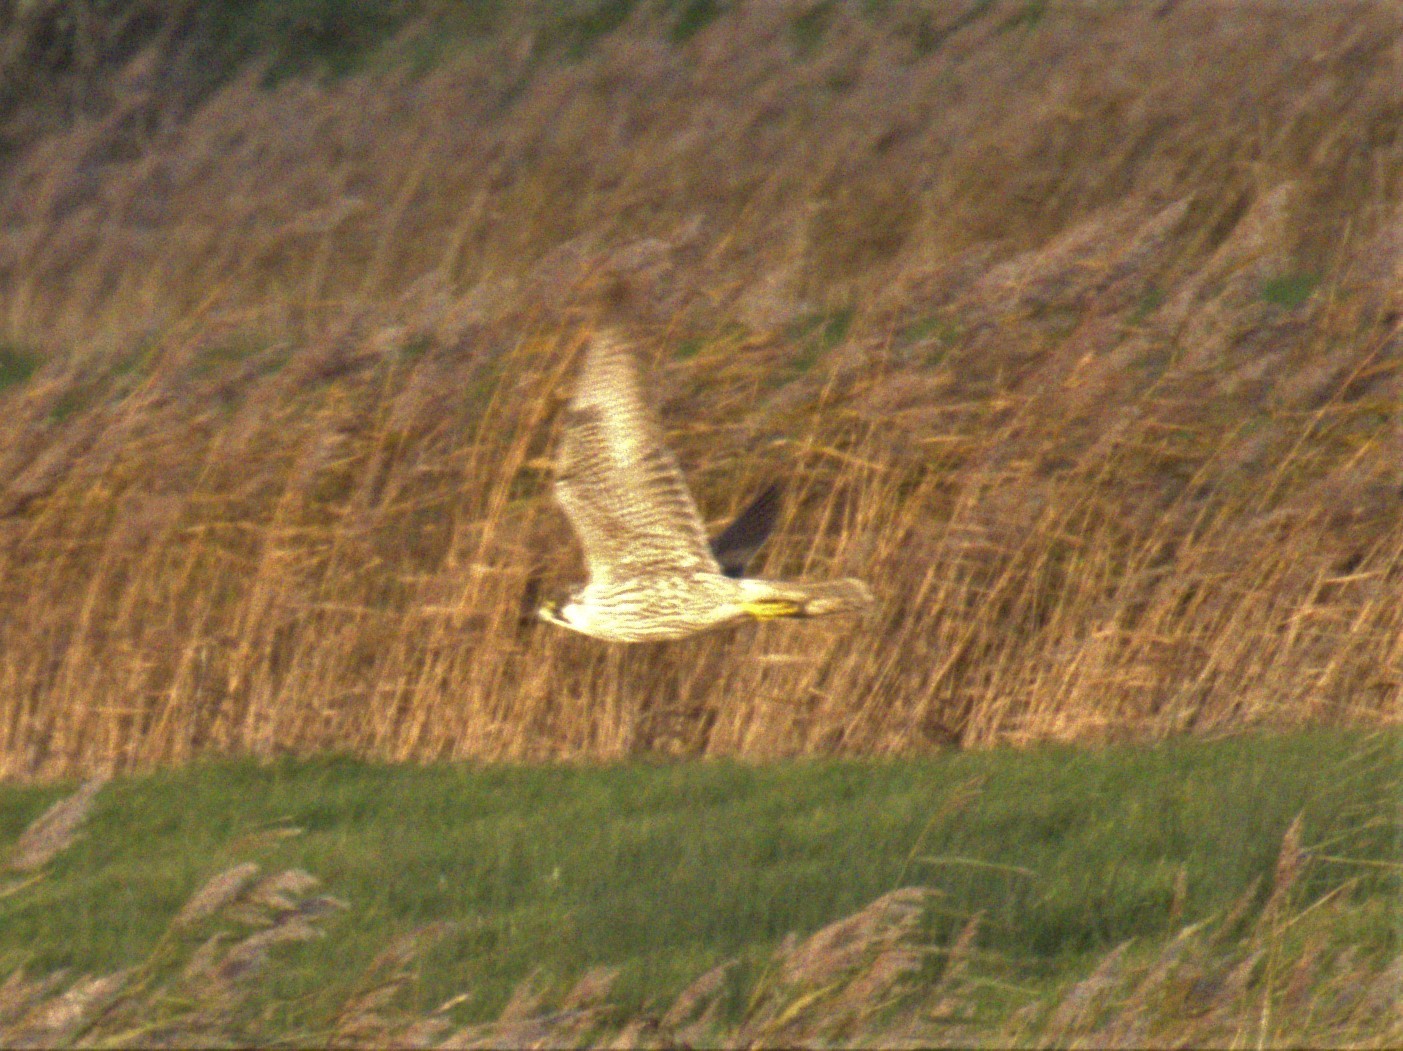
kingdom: Animalia
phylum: Chordata
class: Aves
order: Falconiformes
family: Falconidae
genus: Falco
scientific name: Falco peregrinus
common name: Peregrine falcon
